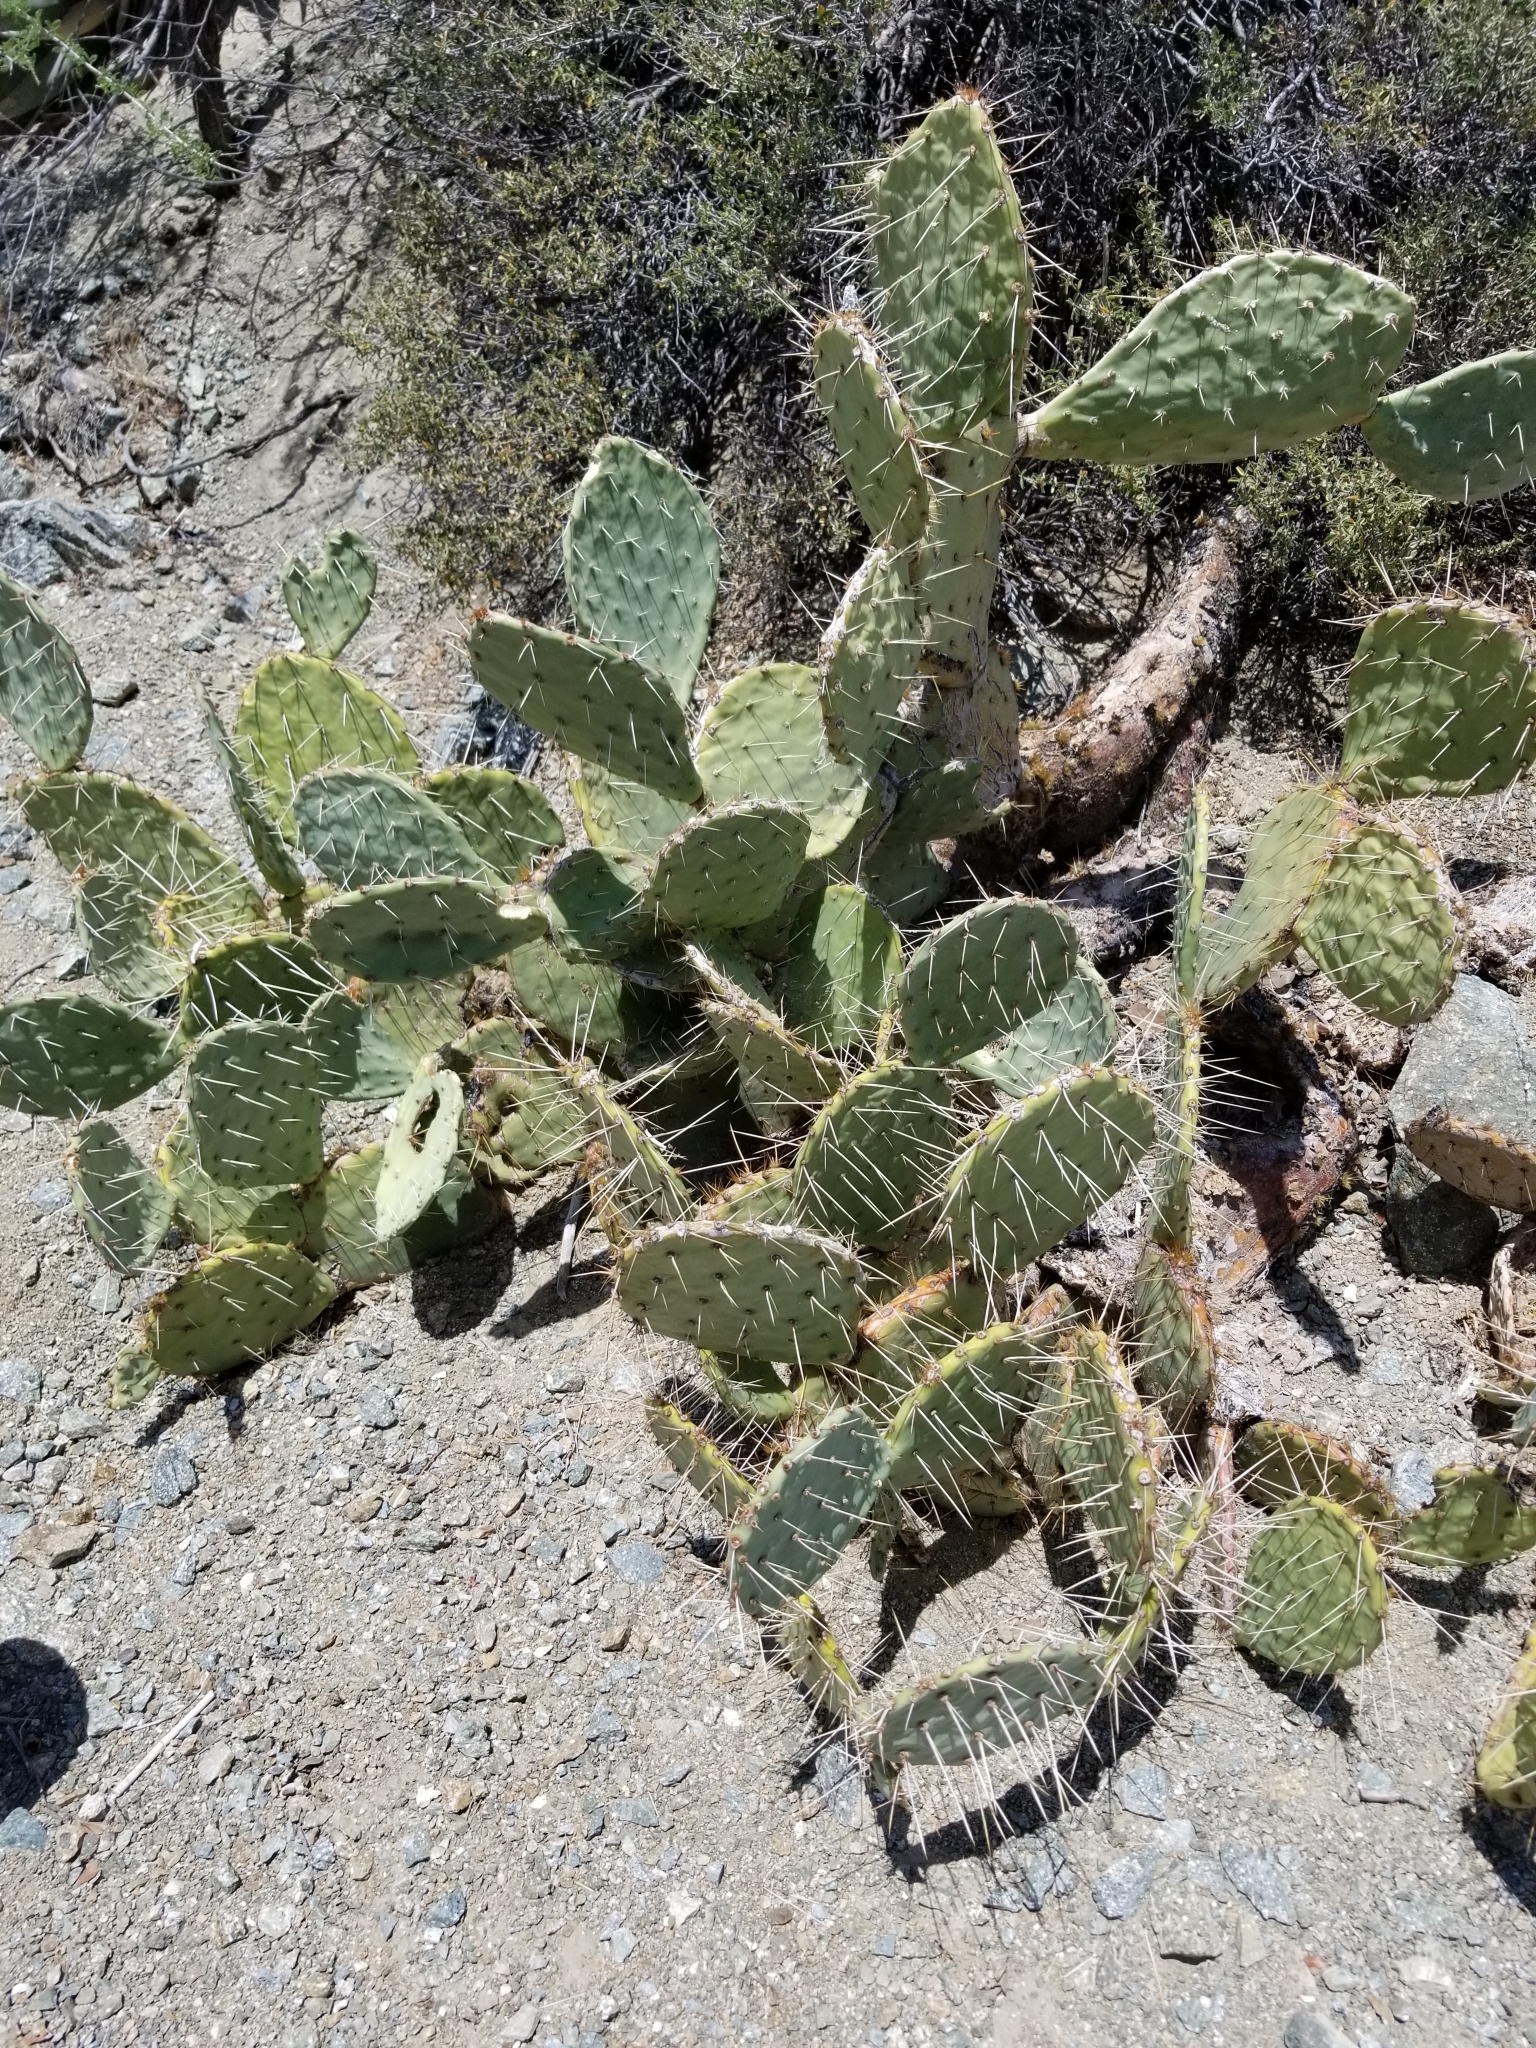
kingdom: Plantae
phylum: Tracheophyta
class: Magnoliopsida
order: Caryophyllales
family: Cactaceae
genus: Opuntia
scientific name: Opuntia phaeacantha
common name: New mexico prickly-pear
